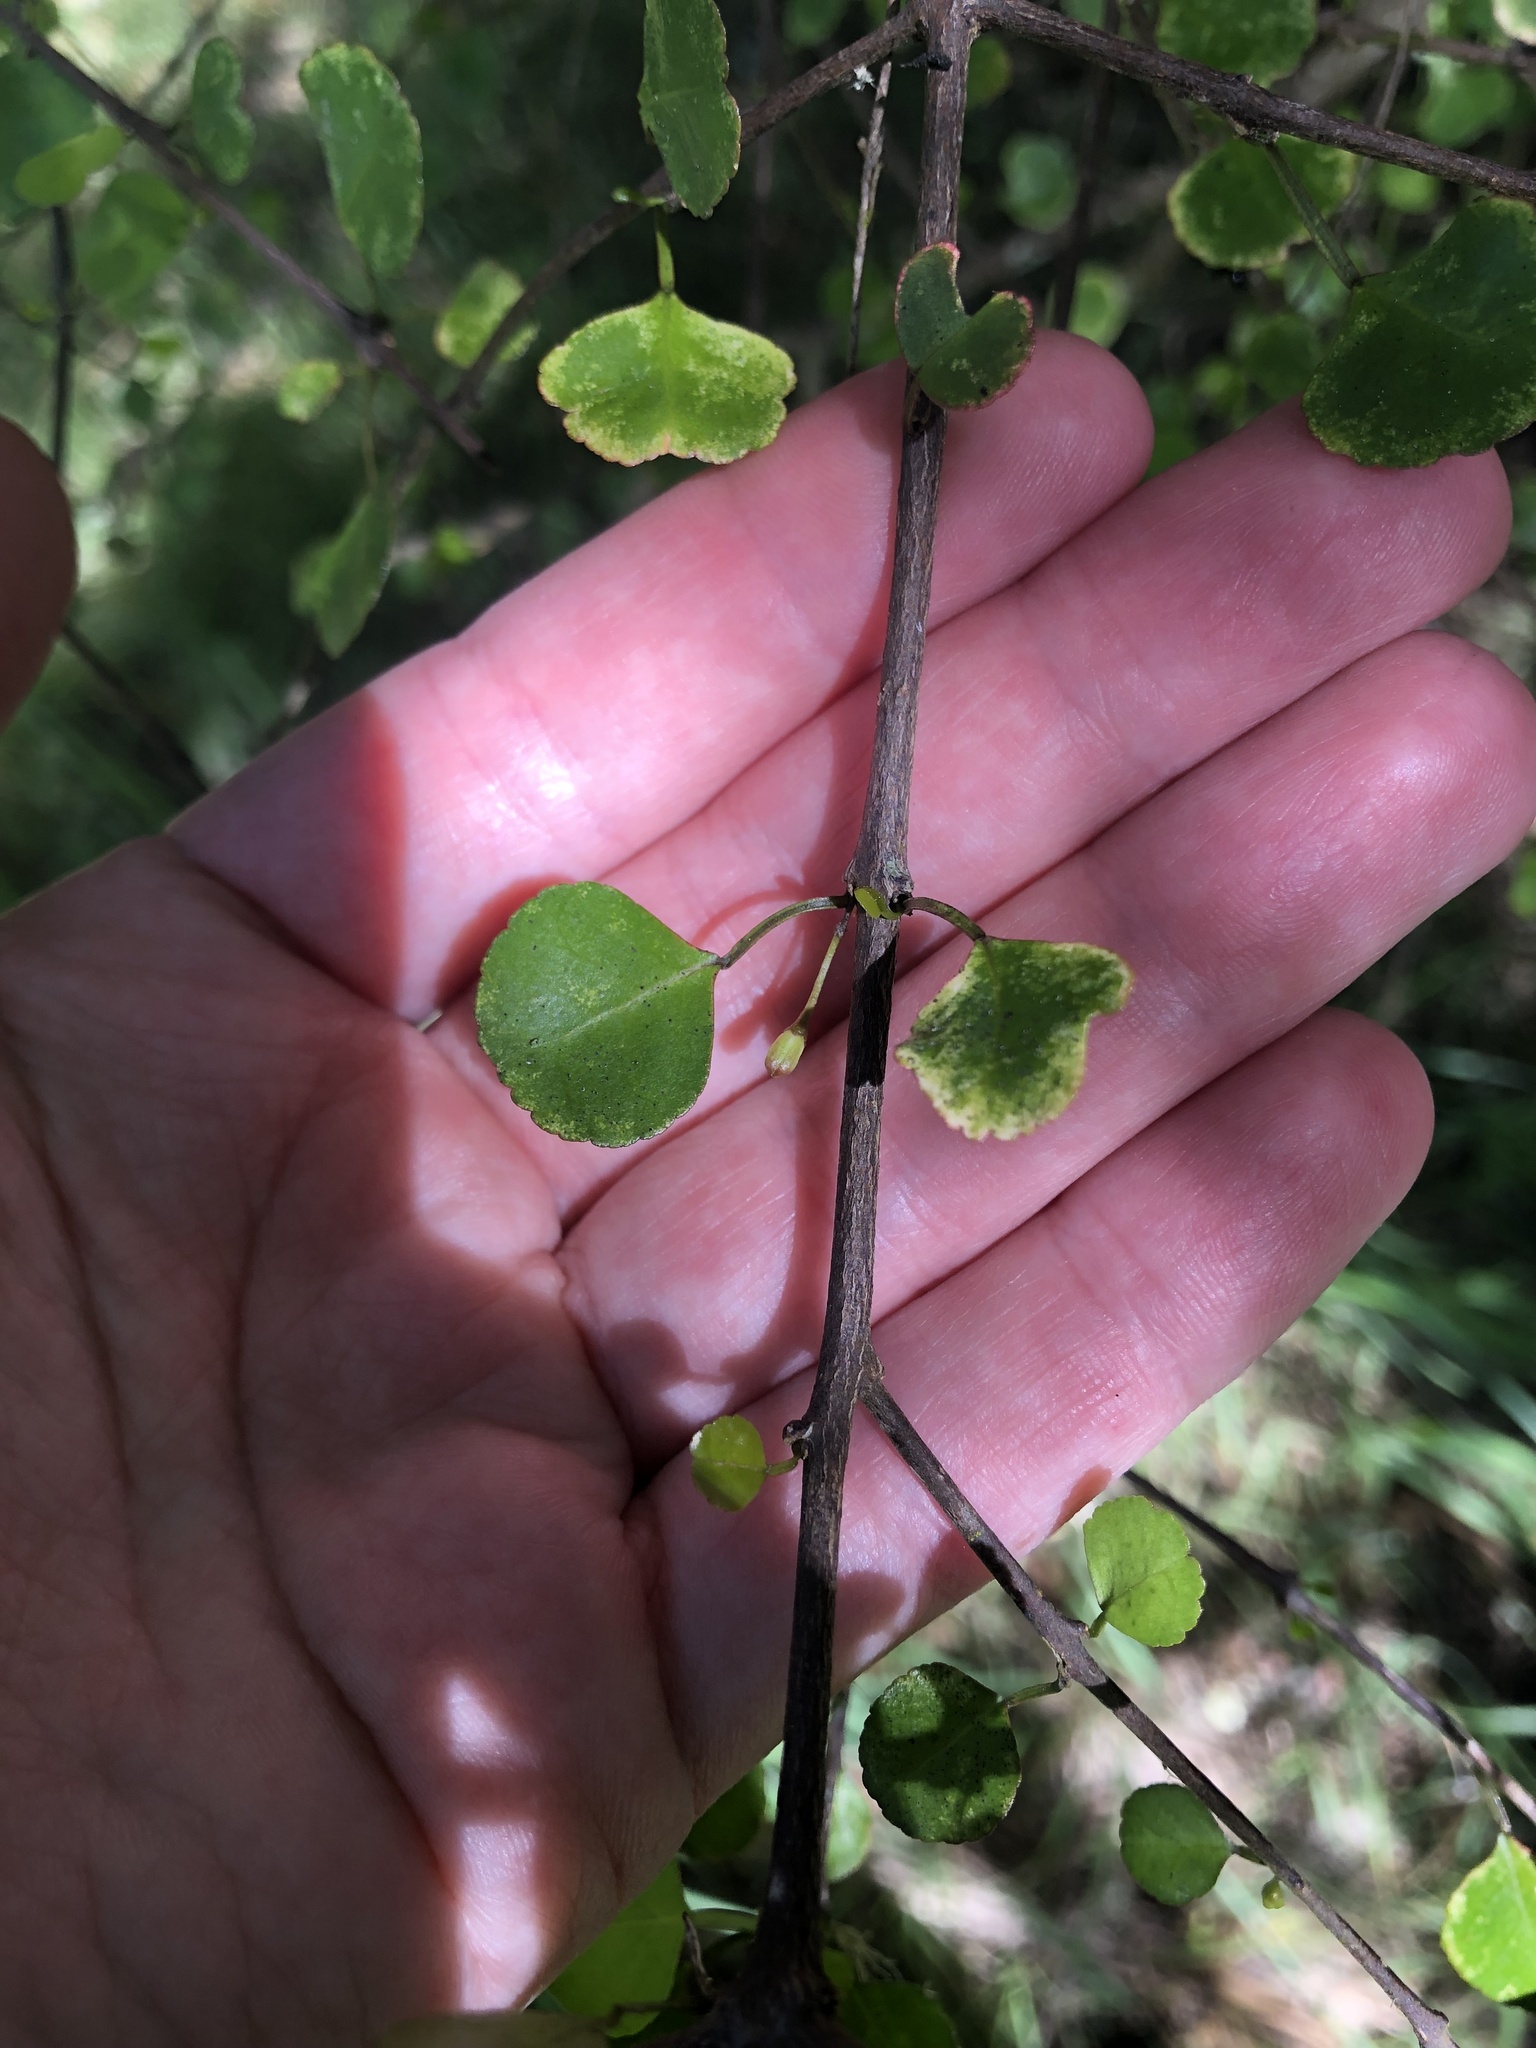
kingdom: Plantae
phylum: Tracheophyta
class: Magnoliopsida
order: Sapindales
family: Rutaceae
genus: Melicope
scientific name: Melicope simplex
